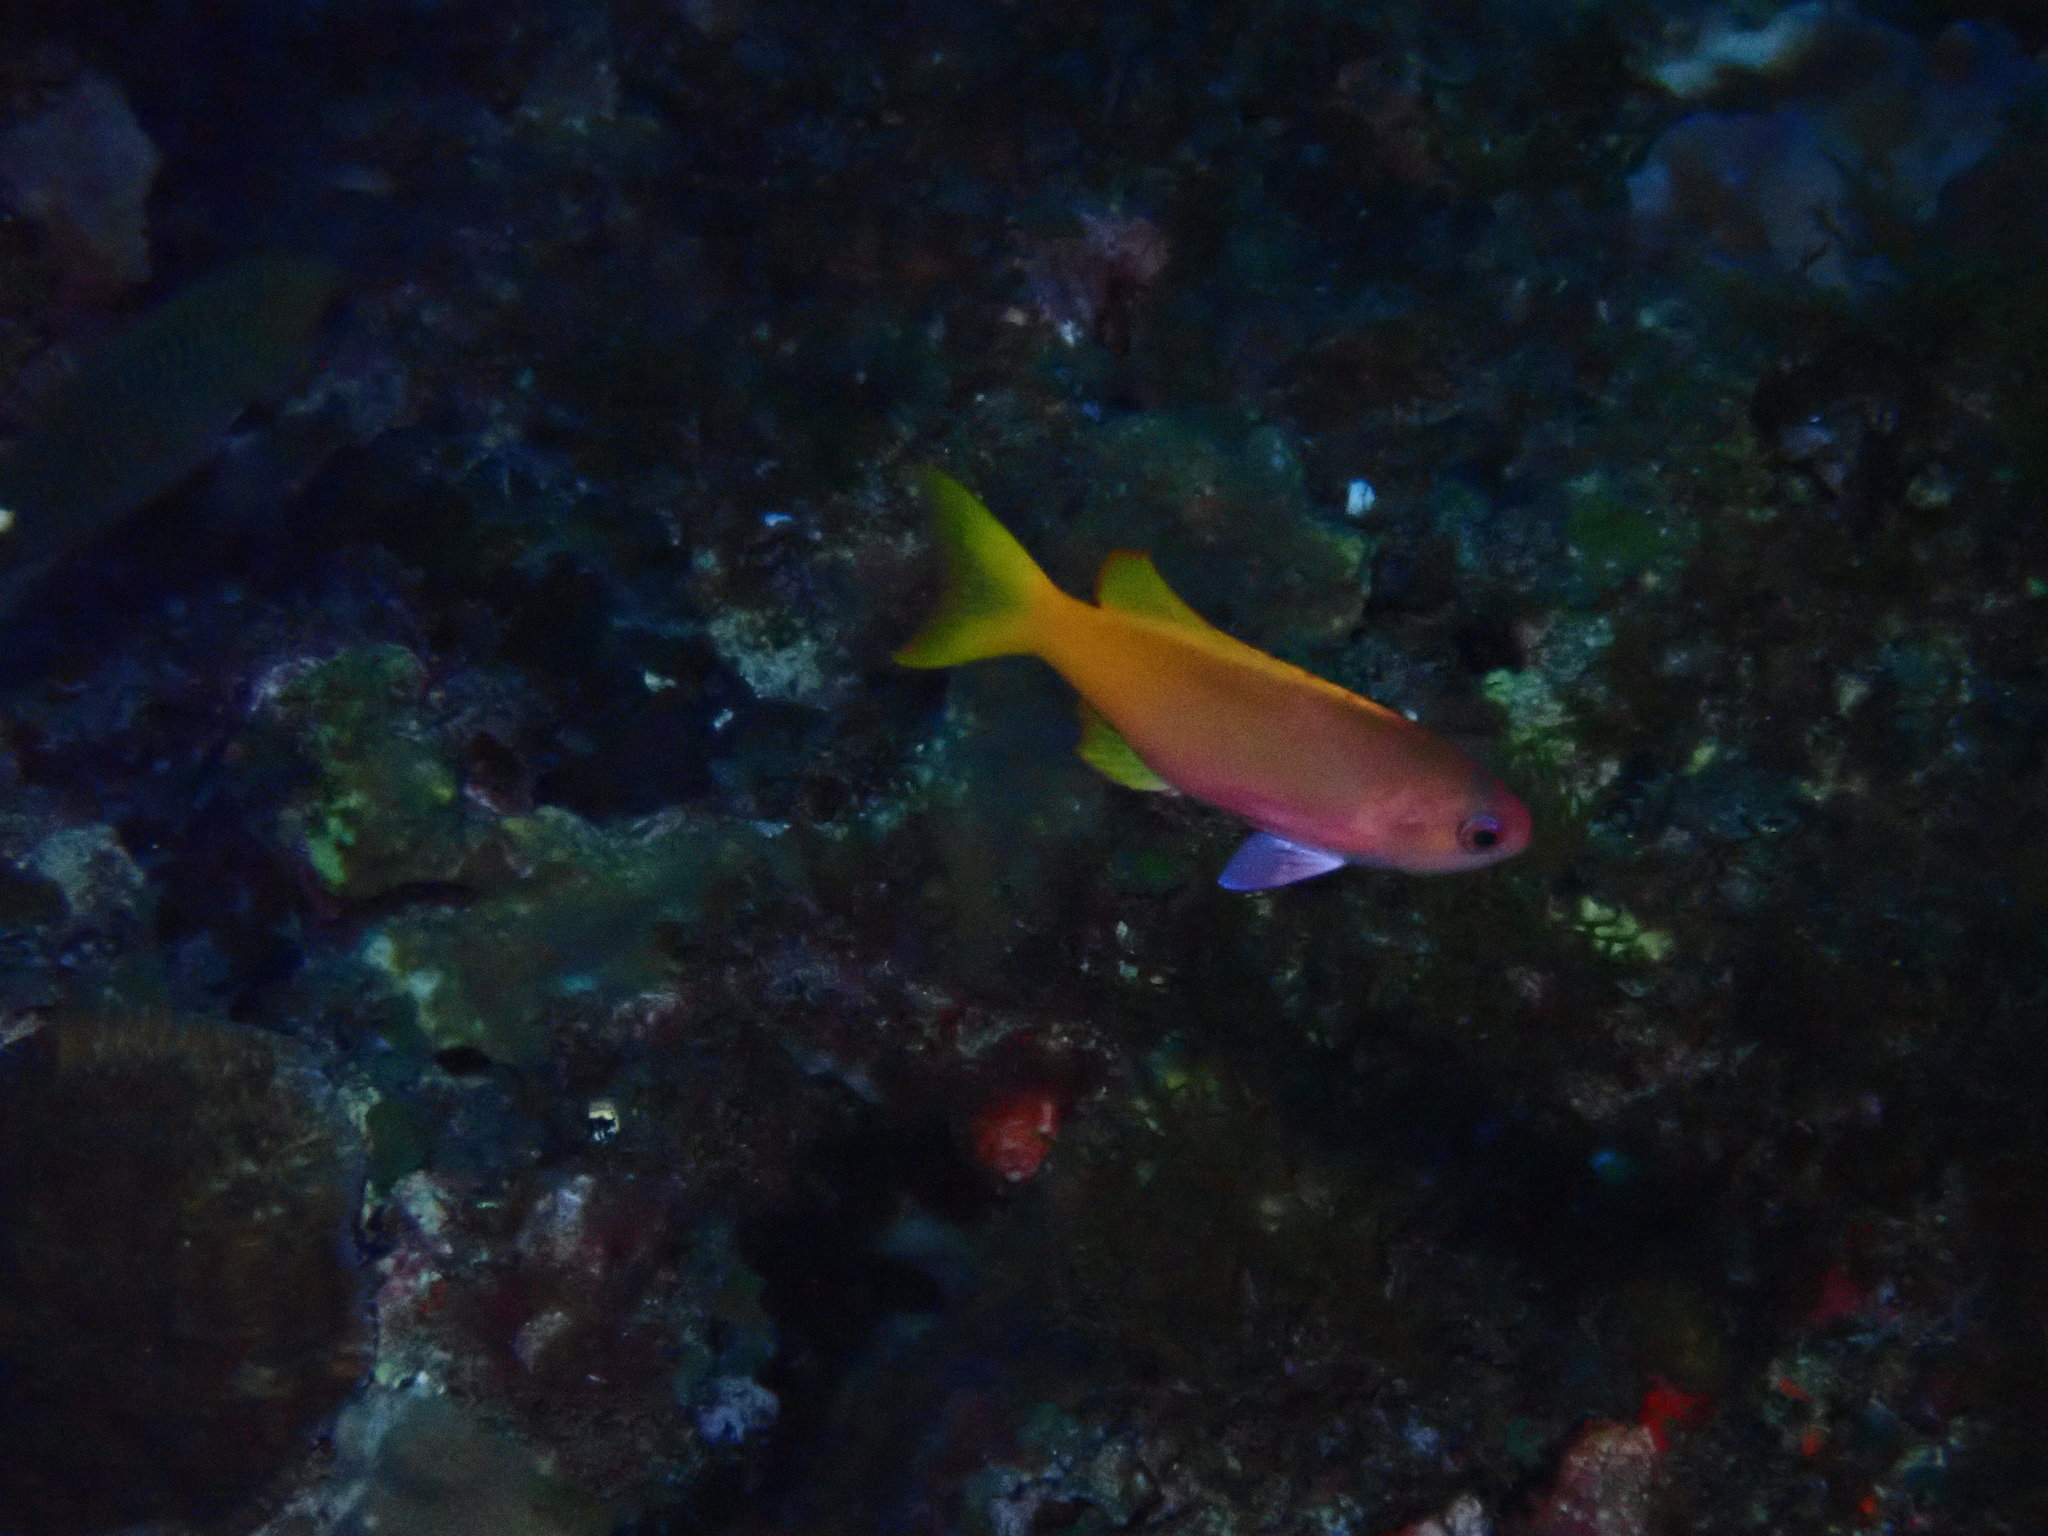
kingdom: Animalia
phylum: Chordata
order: Perciformes
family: Serranidae
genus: Pseudanthias
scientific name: Pseudanthias pictilis
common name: Painted anthias
